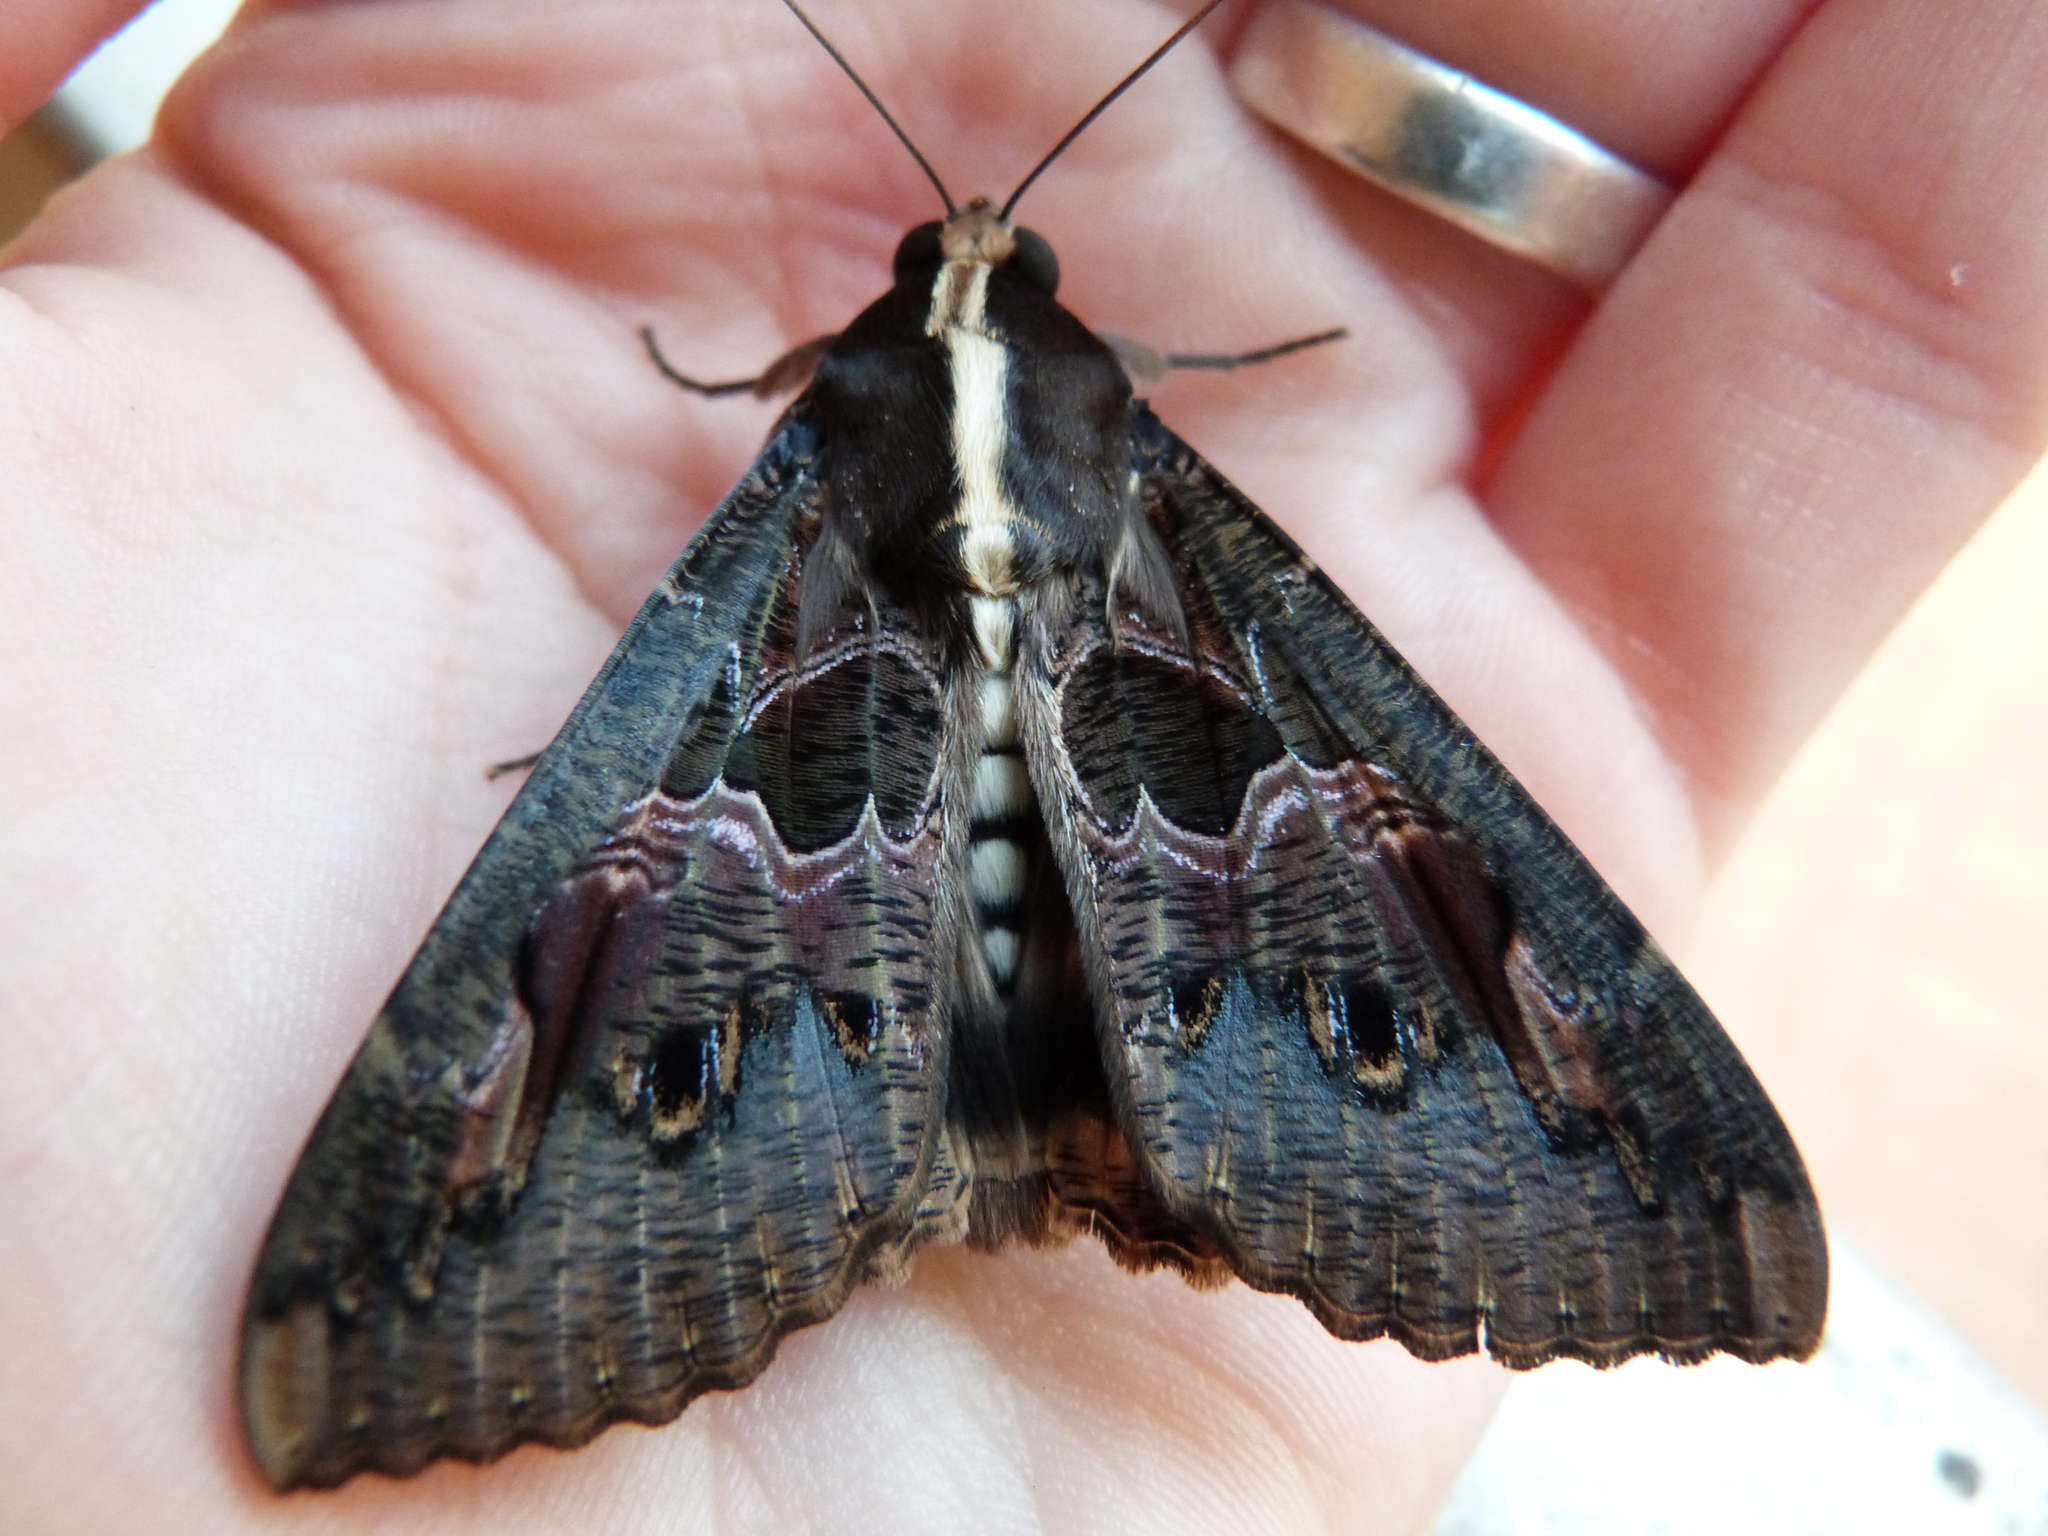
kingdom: Animalia
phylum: Arthropoda
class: Insecta
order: Lepidoptera
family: Erebidae
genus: Sphingomorpha
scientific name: Sphingomorpha chlorea
